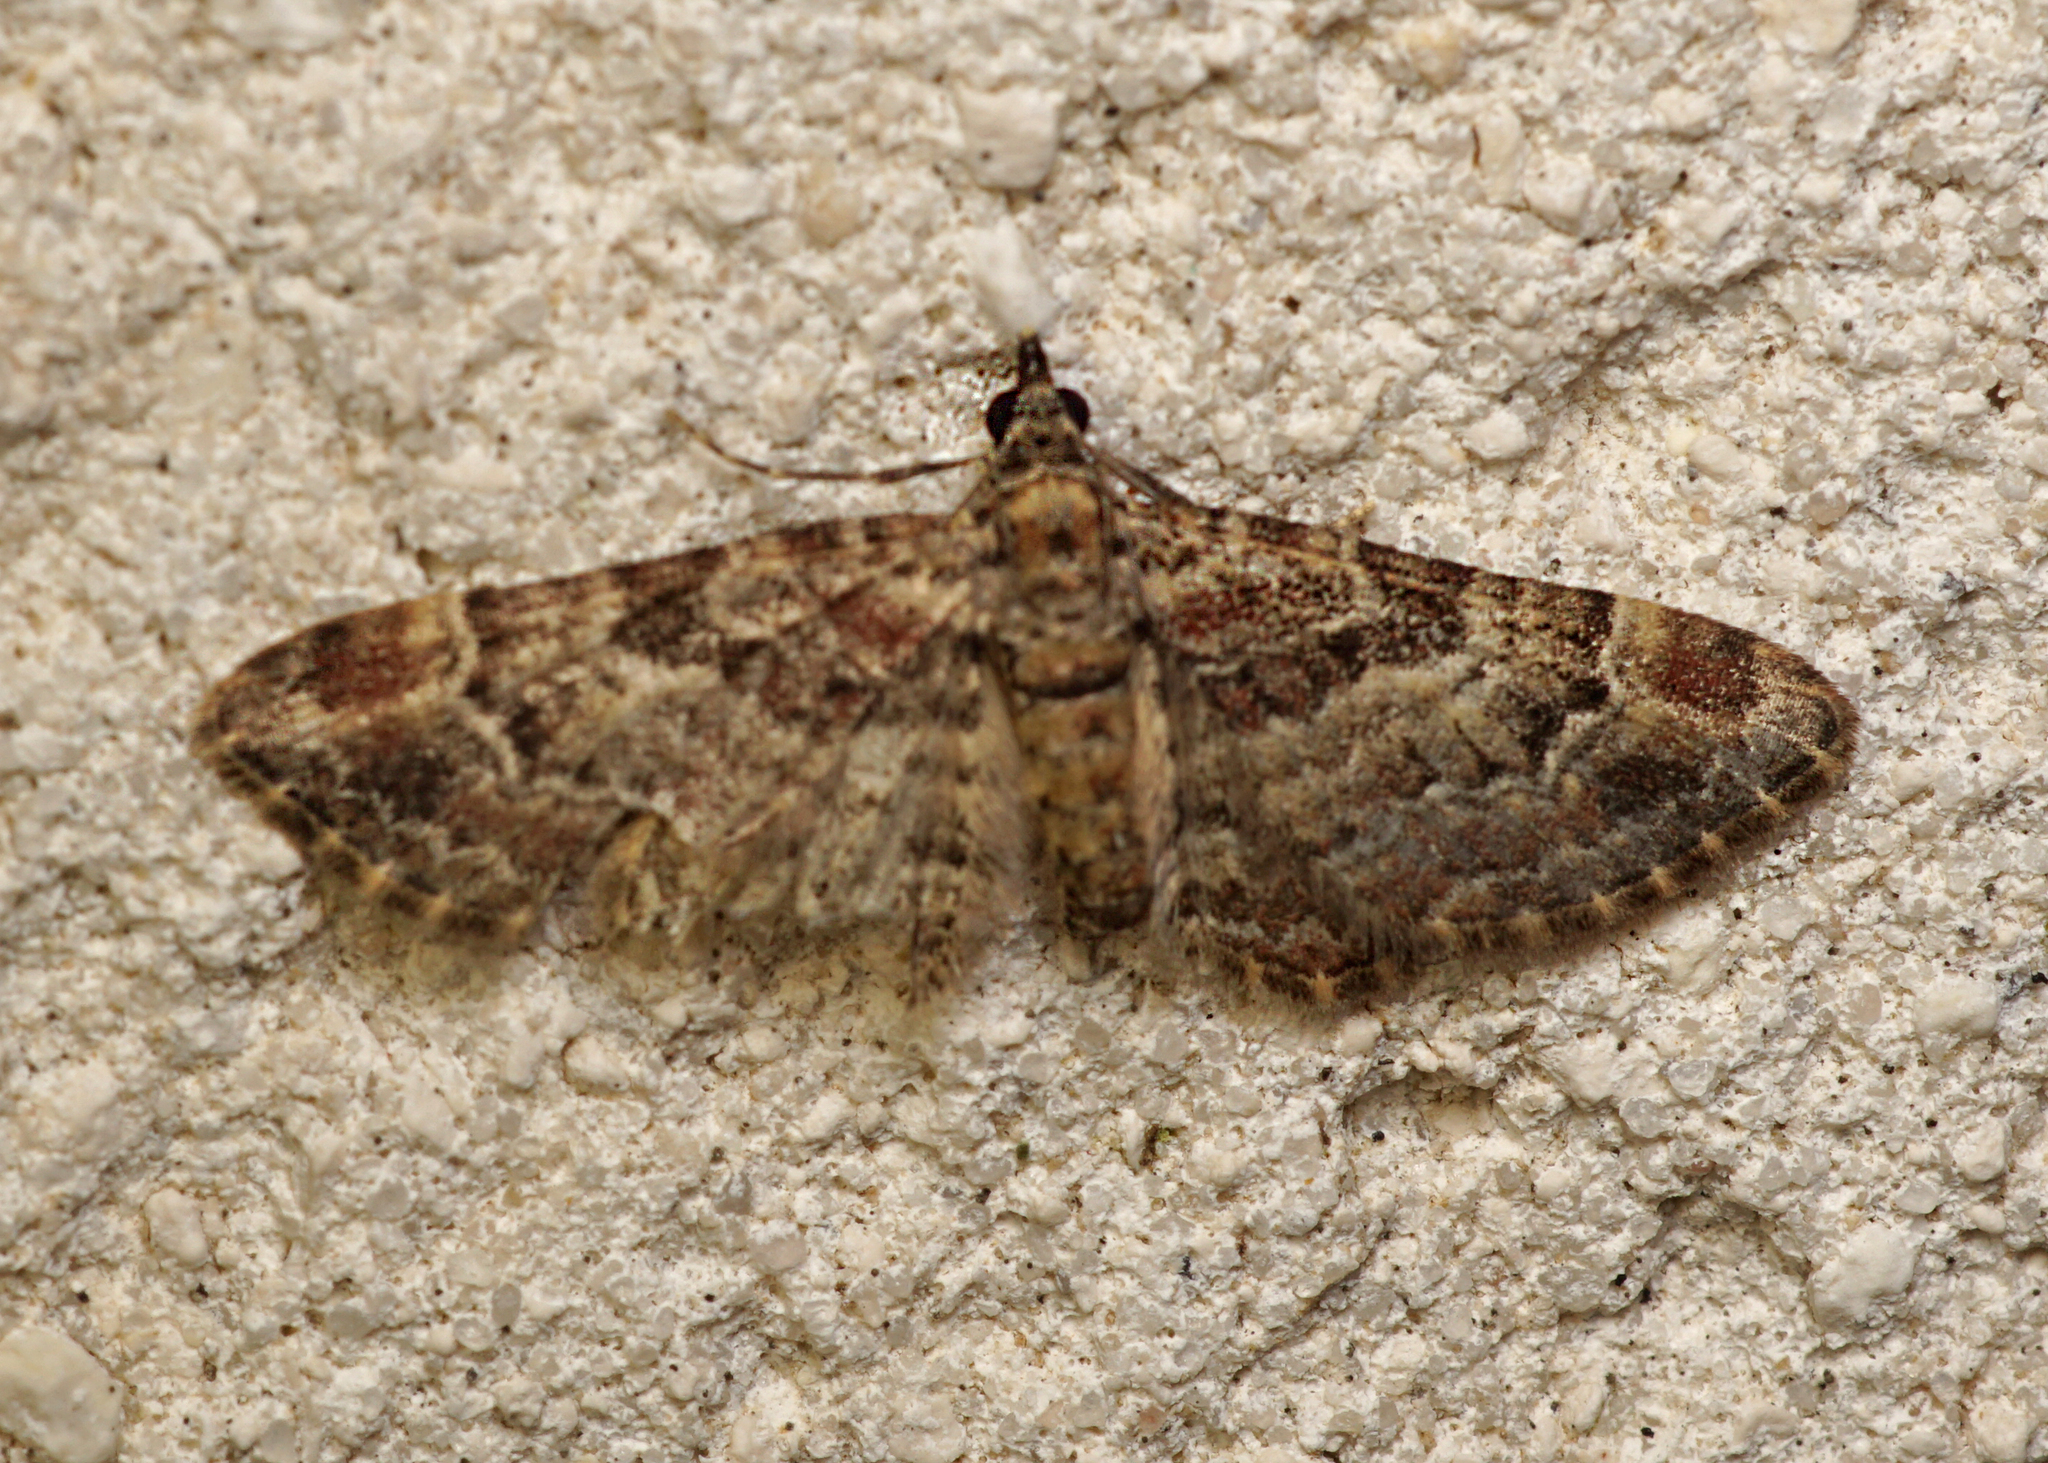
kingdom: Animalia
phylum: Arthropoda
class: Insecta
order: Lepidoptera
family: Geometridae
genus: Gymnoscelis
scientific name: Gymnoscelis rufifasciata
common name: Double-striped pug
